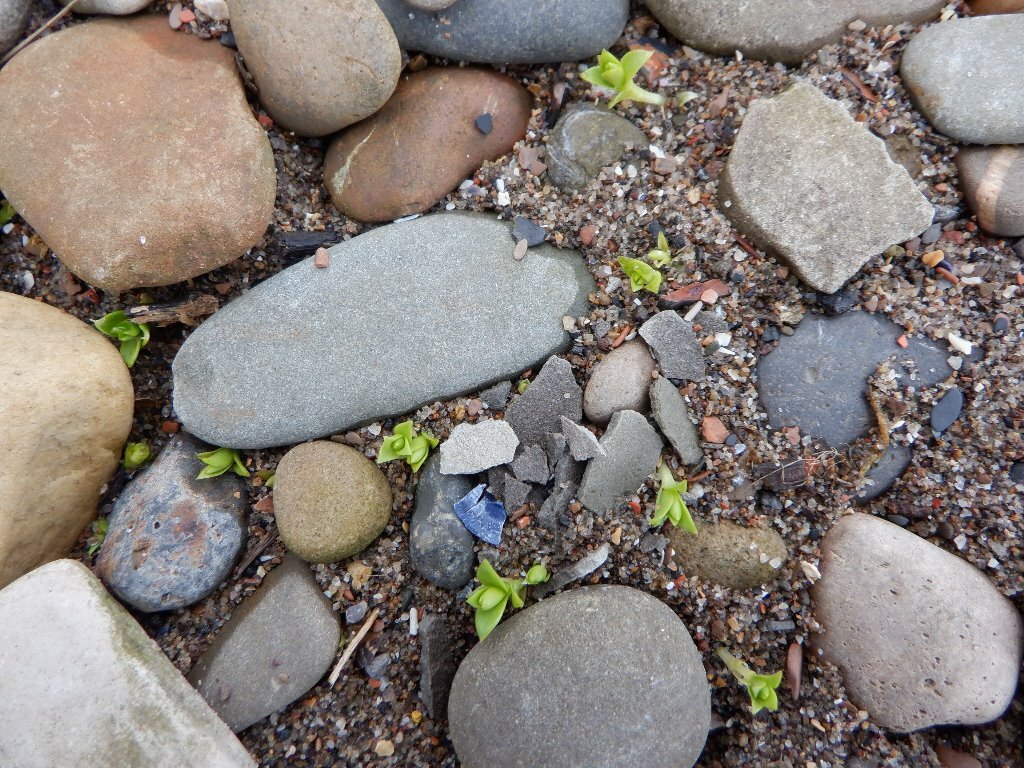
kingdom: Plantae
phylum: Tracheophyta
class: Magnoliopsida
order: Caryophyllales
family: Caryophyllaceae
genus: Honckenya
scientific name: Honckenya peploides
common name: Sea sandwort
